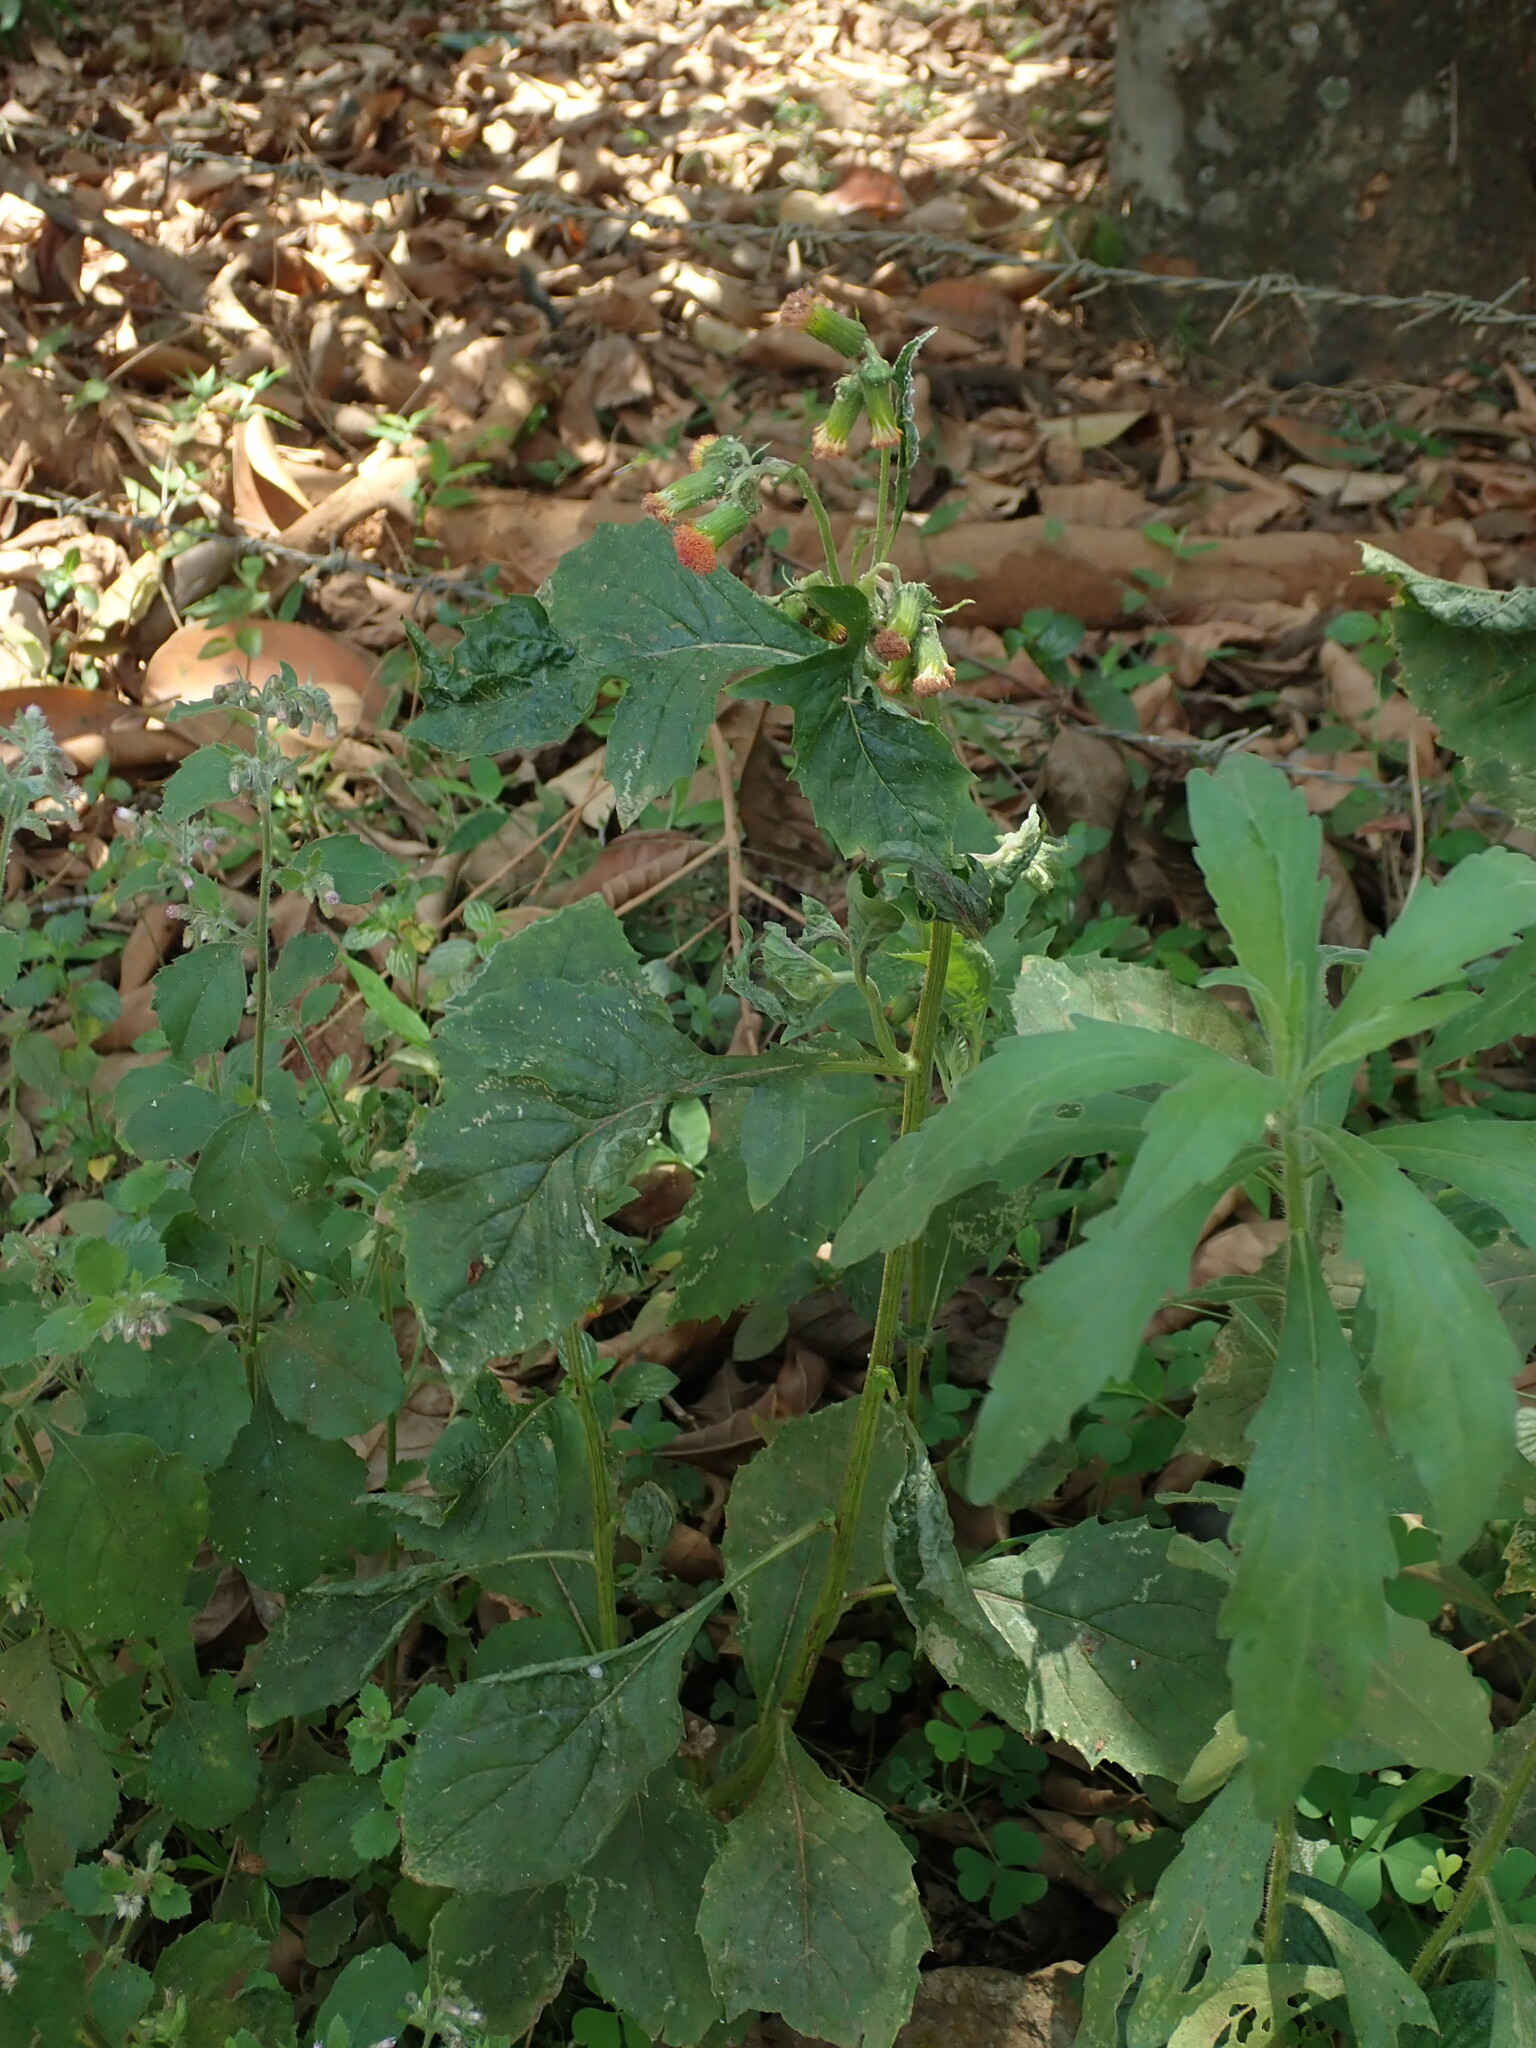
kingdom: Plantae
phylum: Tracheophyta
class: Magnoliopsida
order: Asterales
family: Asteraceae
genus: Crassocephalum
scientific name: Crassocephalum crepidioides
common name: Redflower ragleaf
